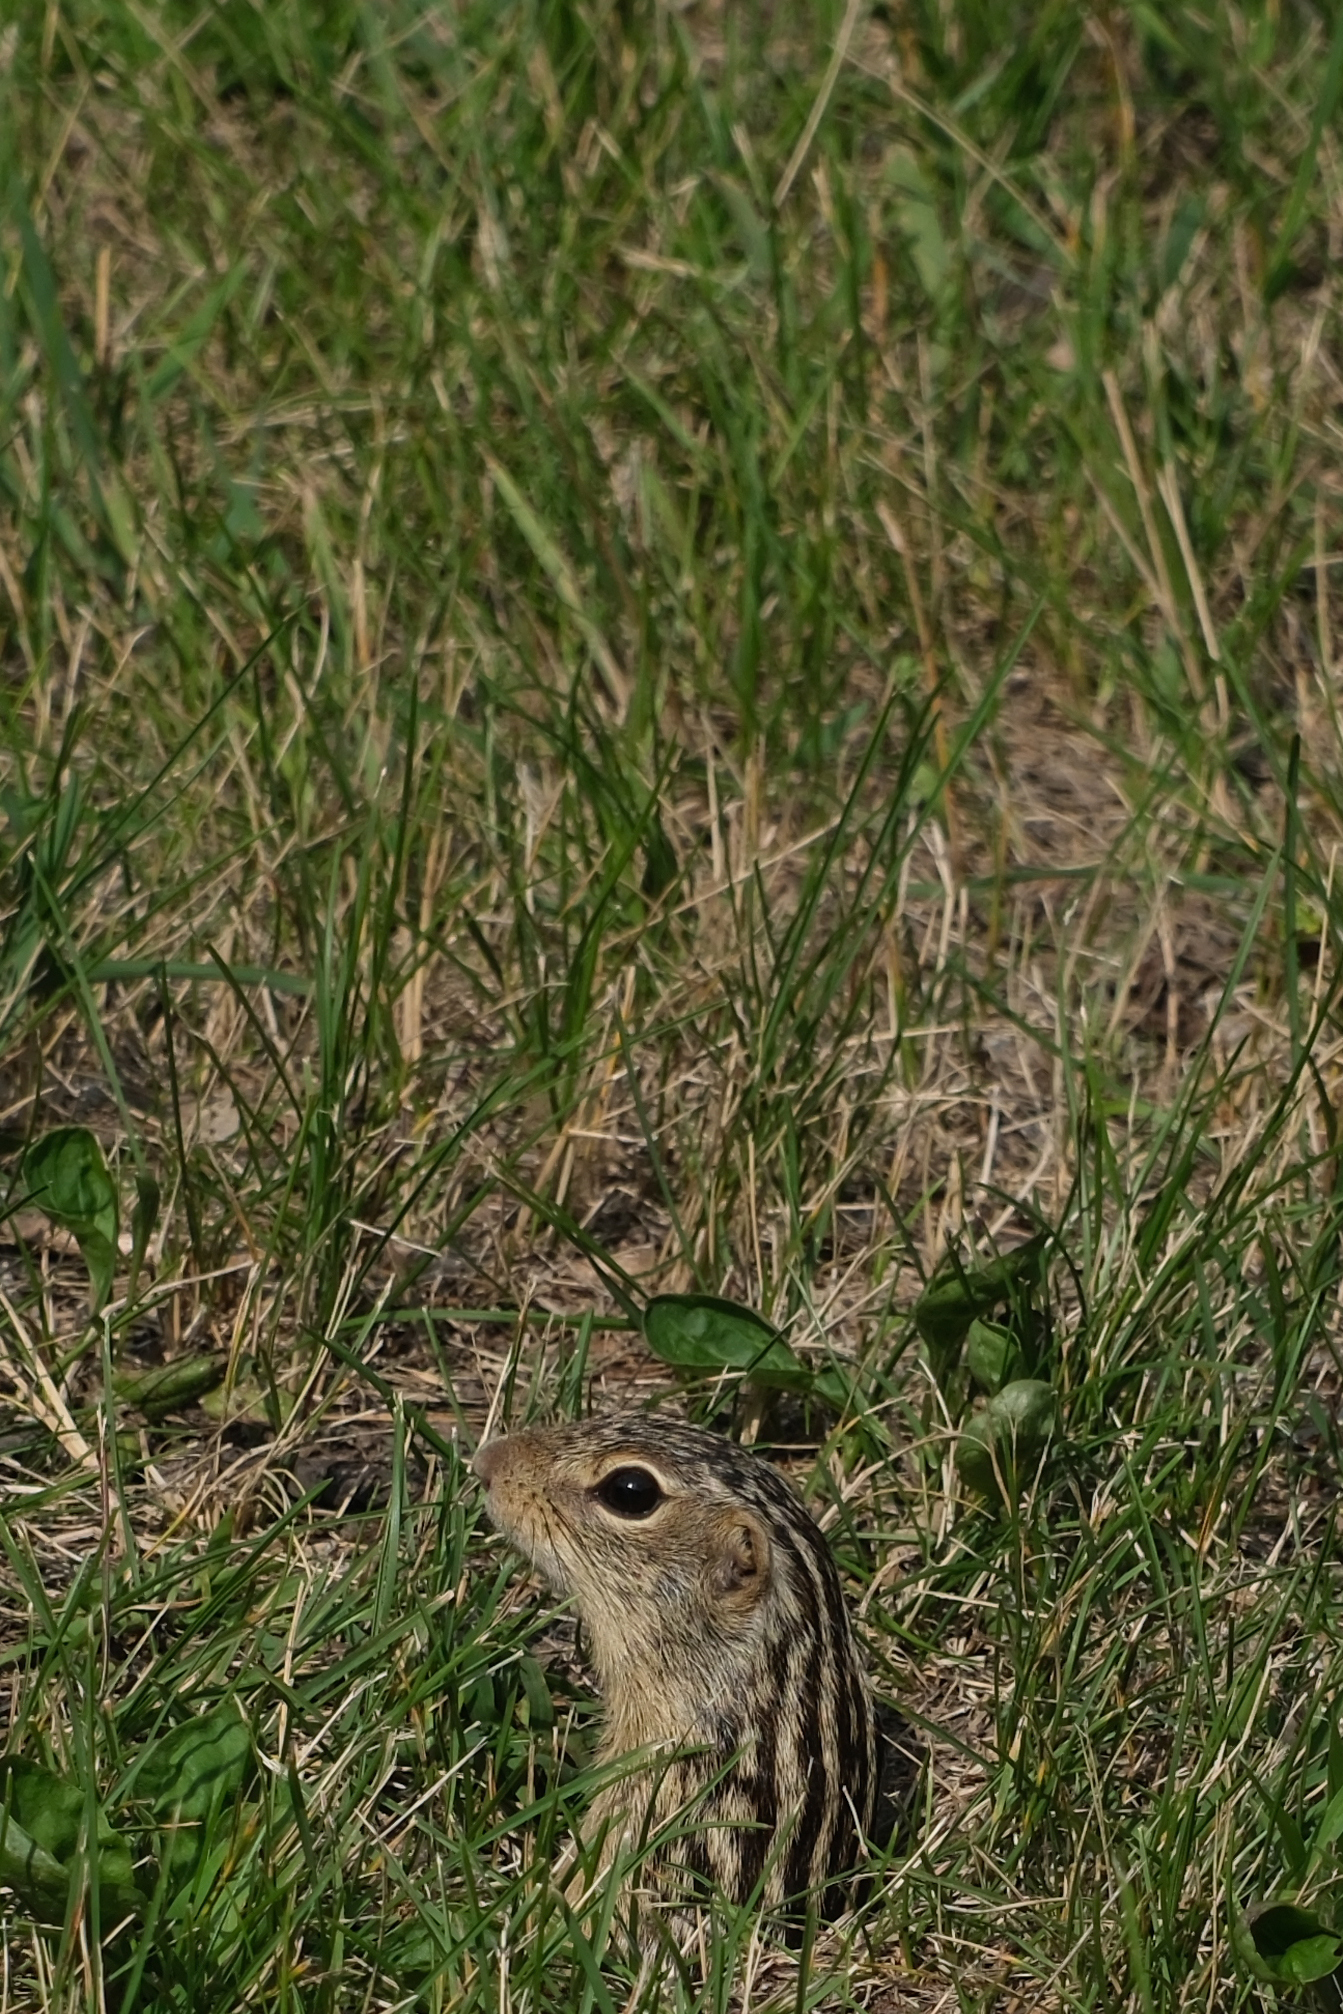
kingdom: Animalia
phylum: Chordata
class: Mammalia
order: Rodentia
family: Sciuridae
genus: Ictidomys
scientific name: Ictidomys tridecemlineatus
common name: Thirteen-lined ground squirrel
